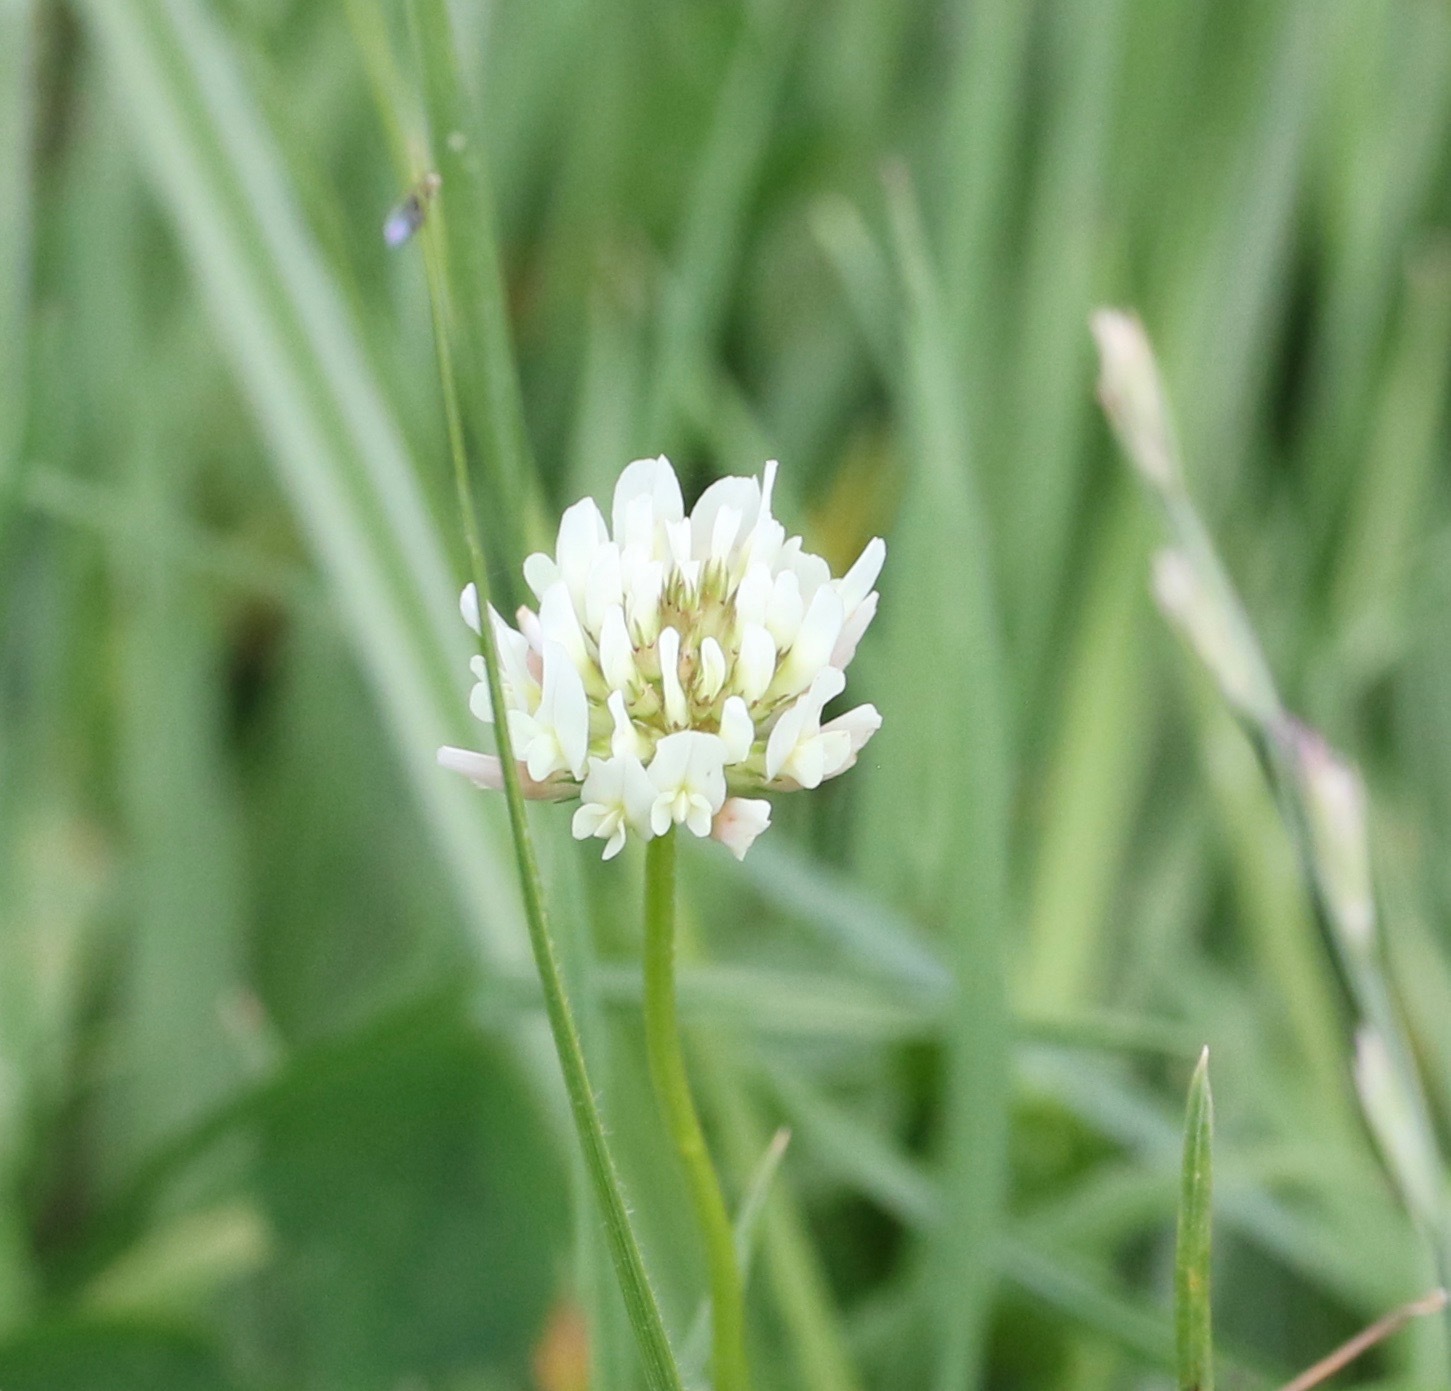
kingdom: Plantae
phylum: Tracheophyta
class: Magnoliopsida
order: Fabales
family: Fabaceae
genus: Trifolium
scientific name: Trifolium repens
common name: White clover
